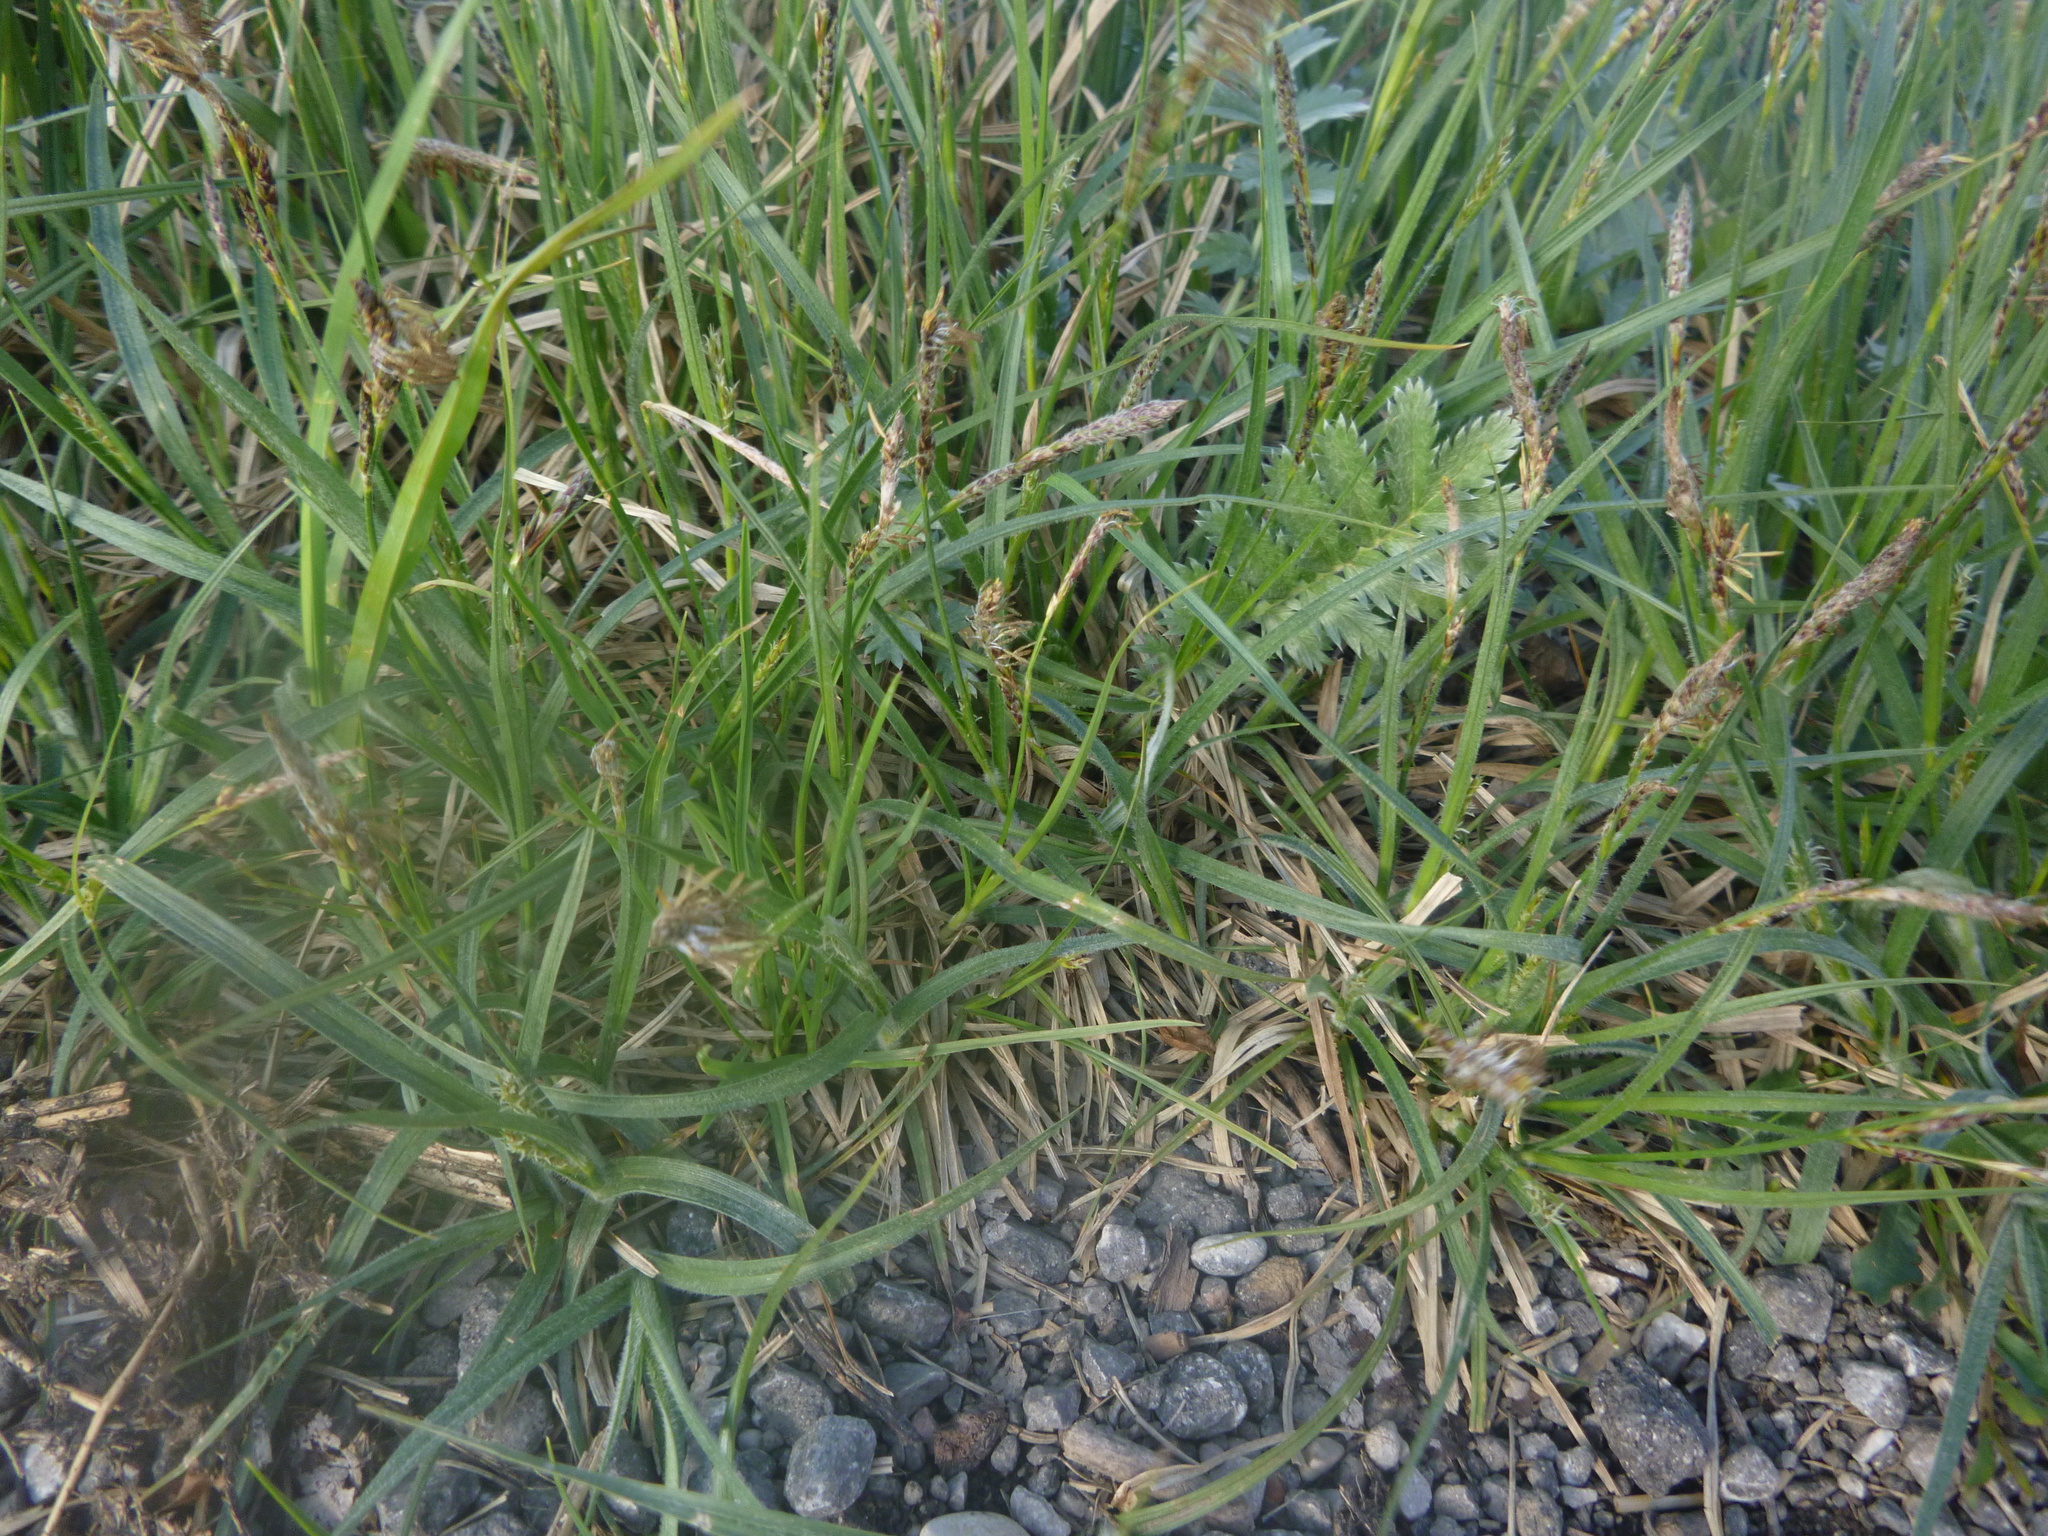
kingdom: Plantae
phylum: Tracheophyta
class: Liliopsida
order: Poales
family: Cyperaceae
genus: Carex
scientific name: Carex hirta
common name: Hairy sedge
